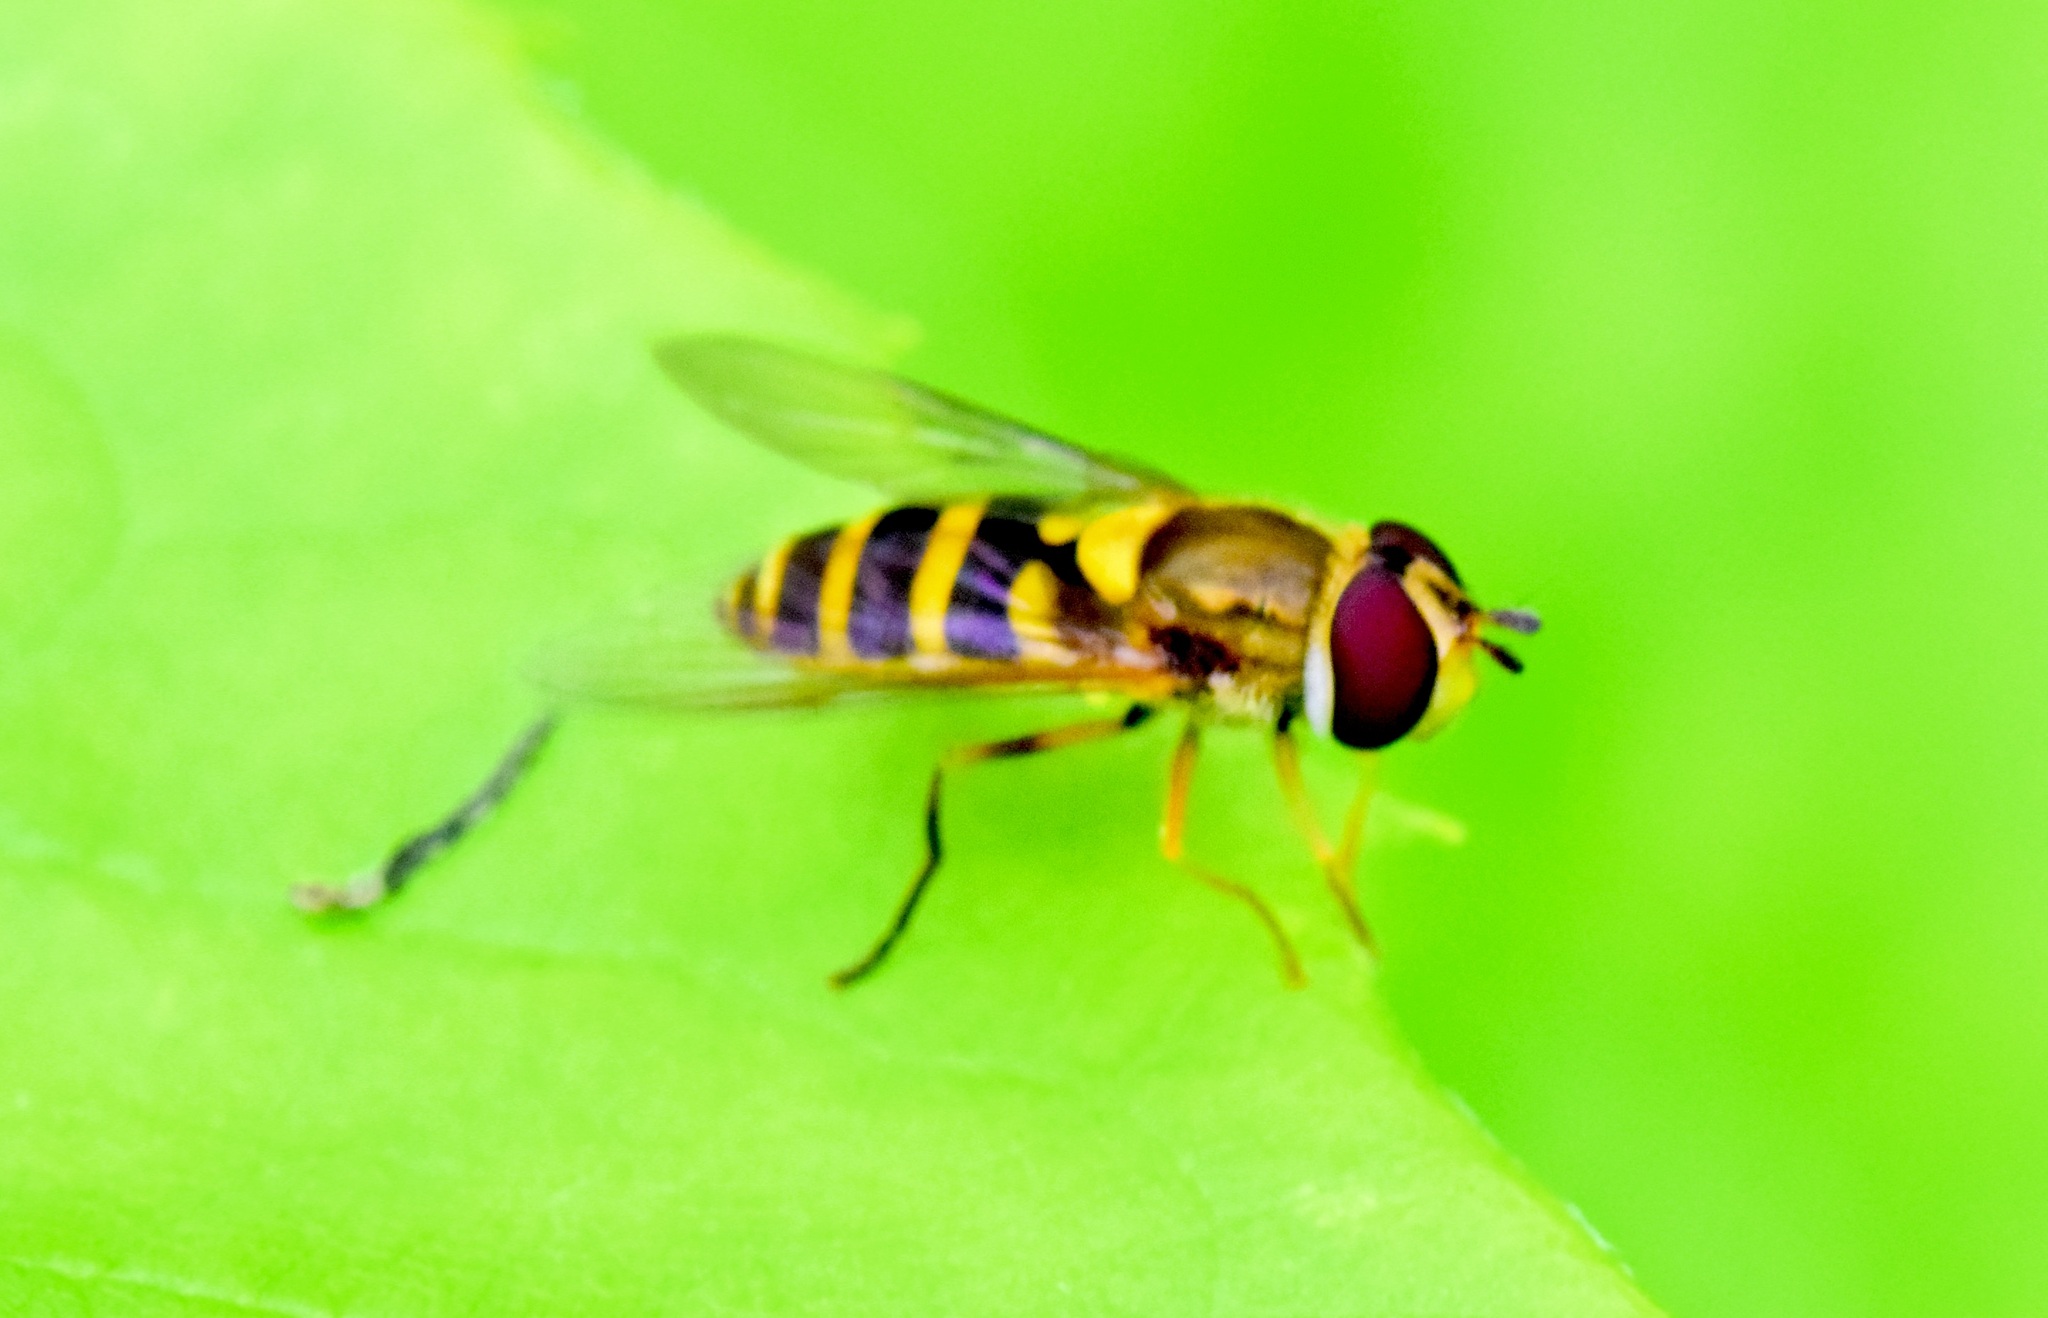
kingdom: Animalia
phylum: Arthropoda
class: Insecta
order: Diptera
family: Syrphidae
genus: Syrphus
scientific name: Syrphus rectus
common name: Yellow-legged flower fly
